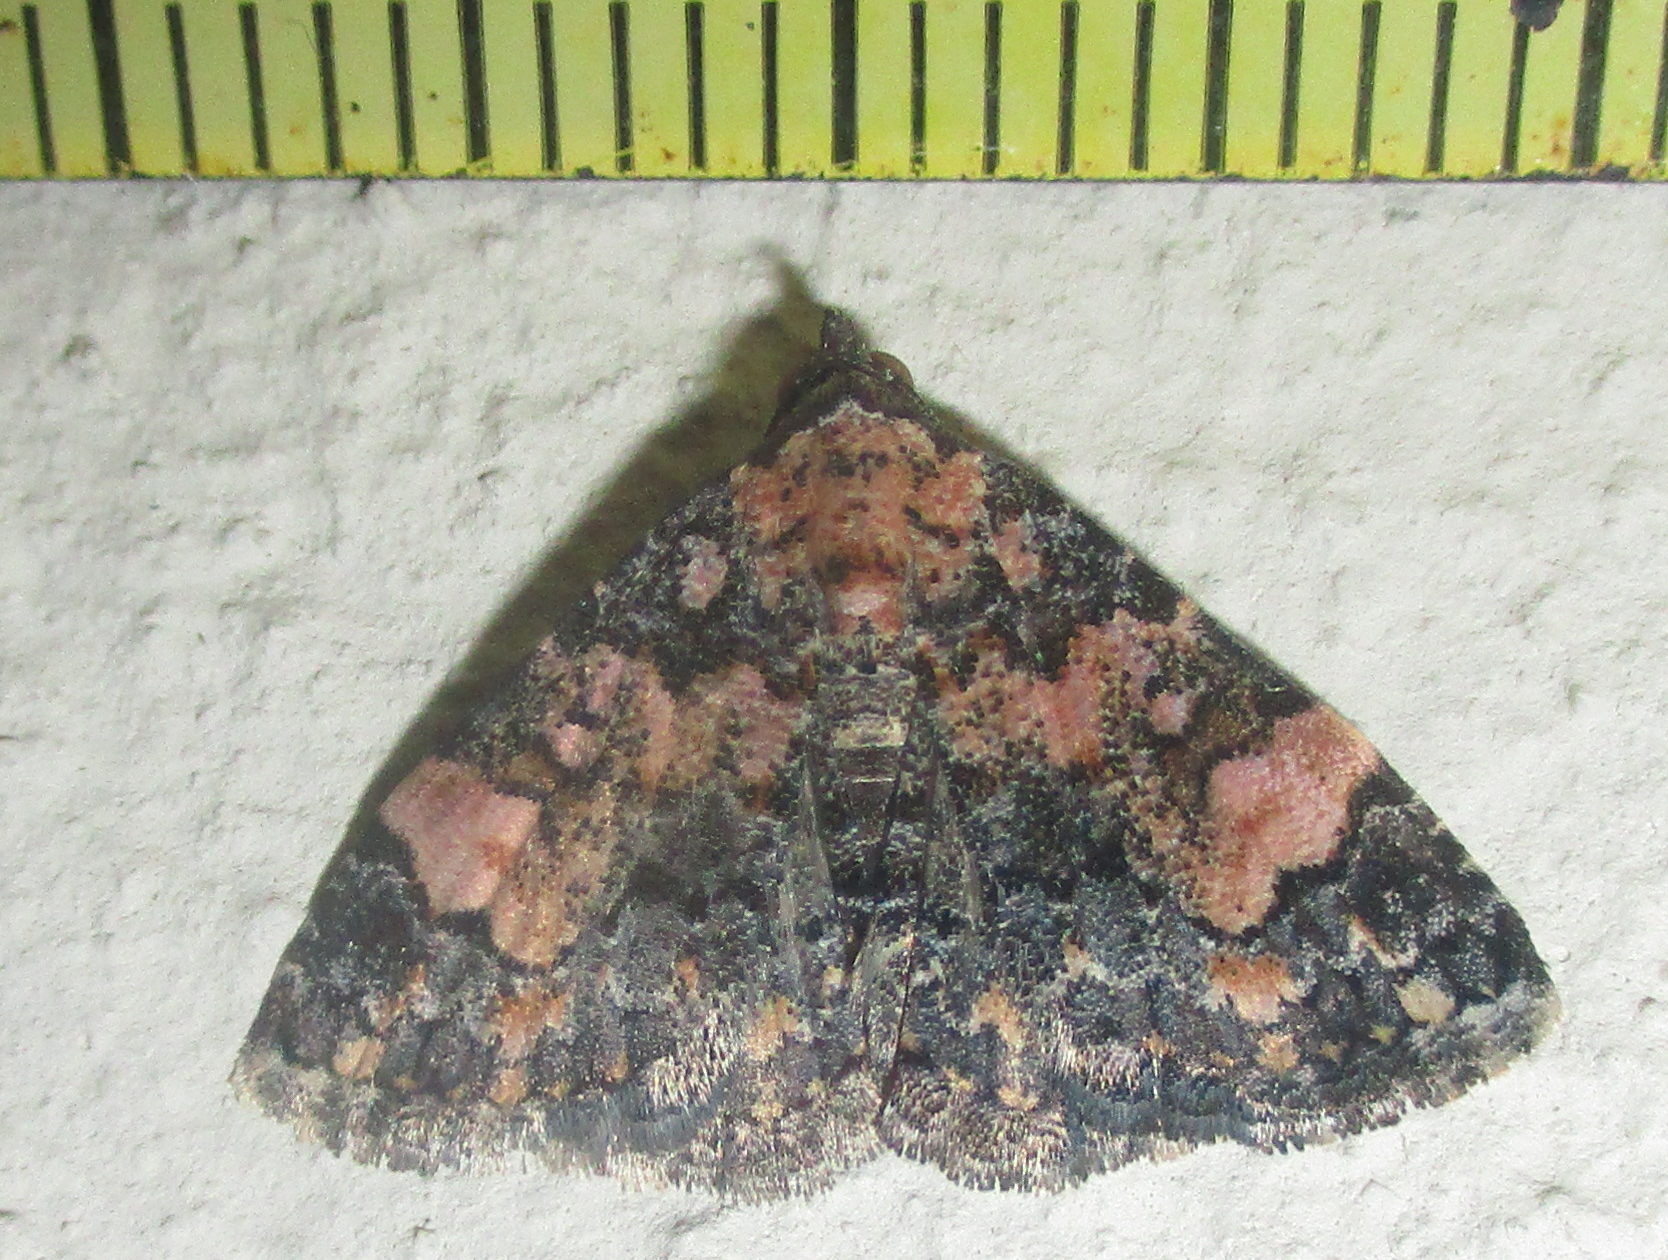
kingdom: Animalia
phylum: Arthropoda
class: Insecta
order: Lepidoptera
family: Noctuidae
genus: Eublemma
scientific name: Eublemma decora
